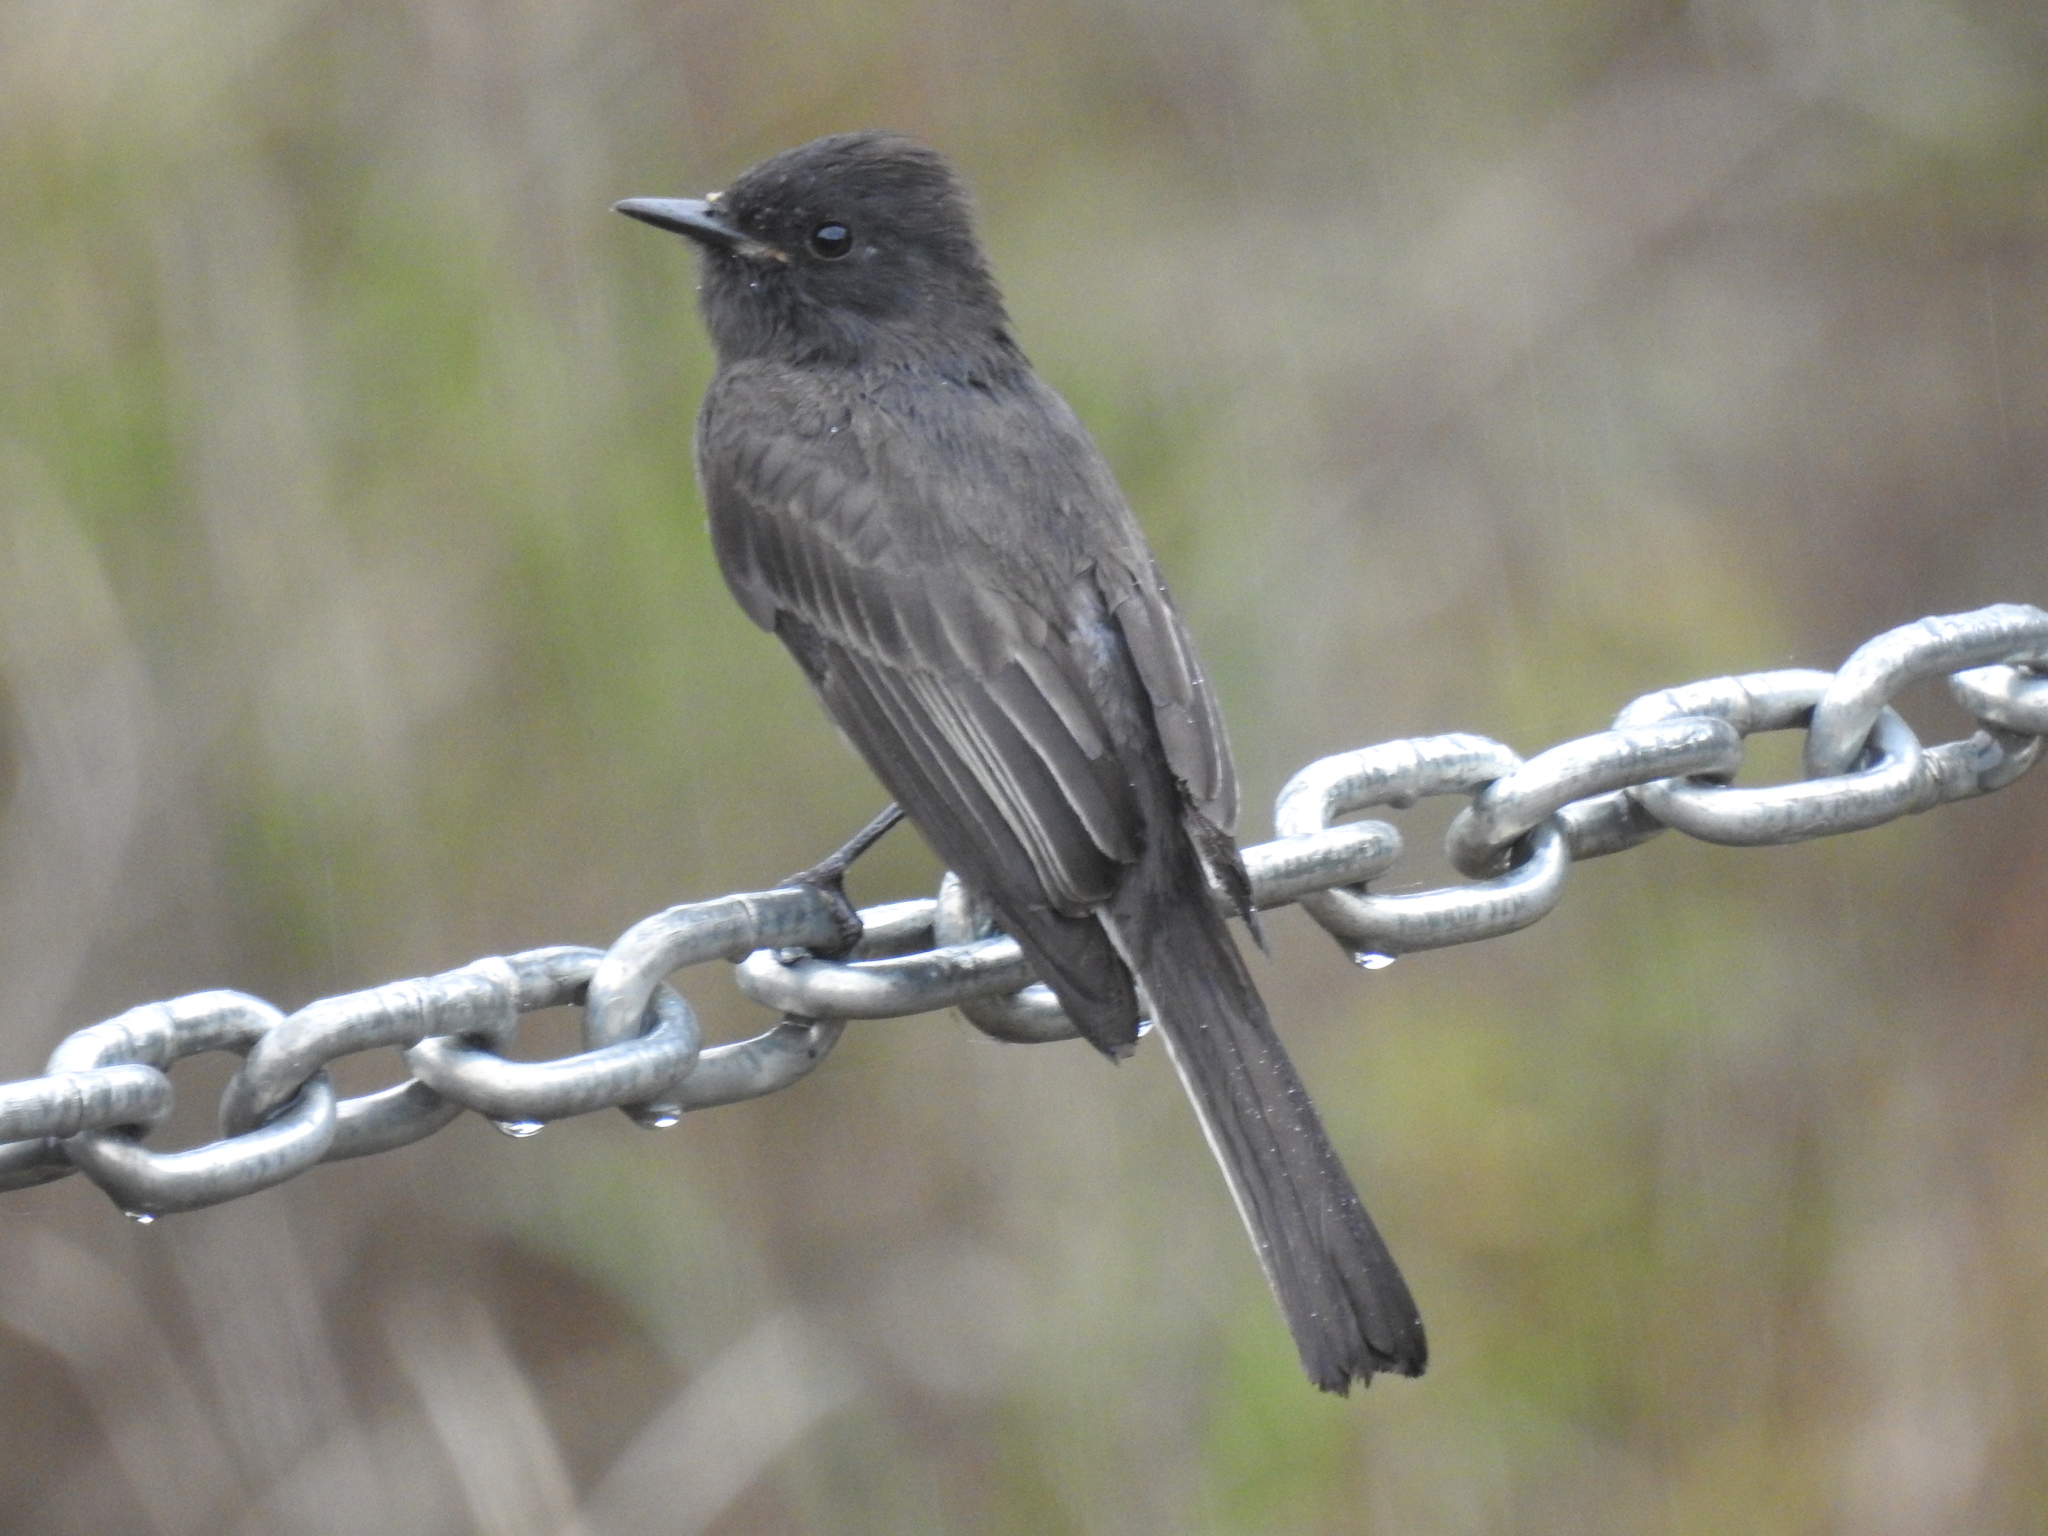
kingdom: Animalia
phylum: Chordata
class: Aves
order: Passeriformes
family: Tyrannidae
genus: Sayornis
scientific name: Sayornis nigricans
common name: Black phoebe
